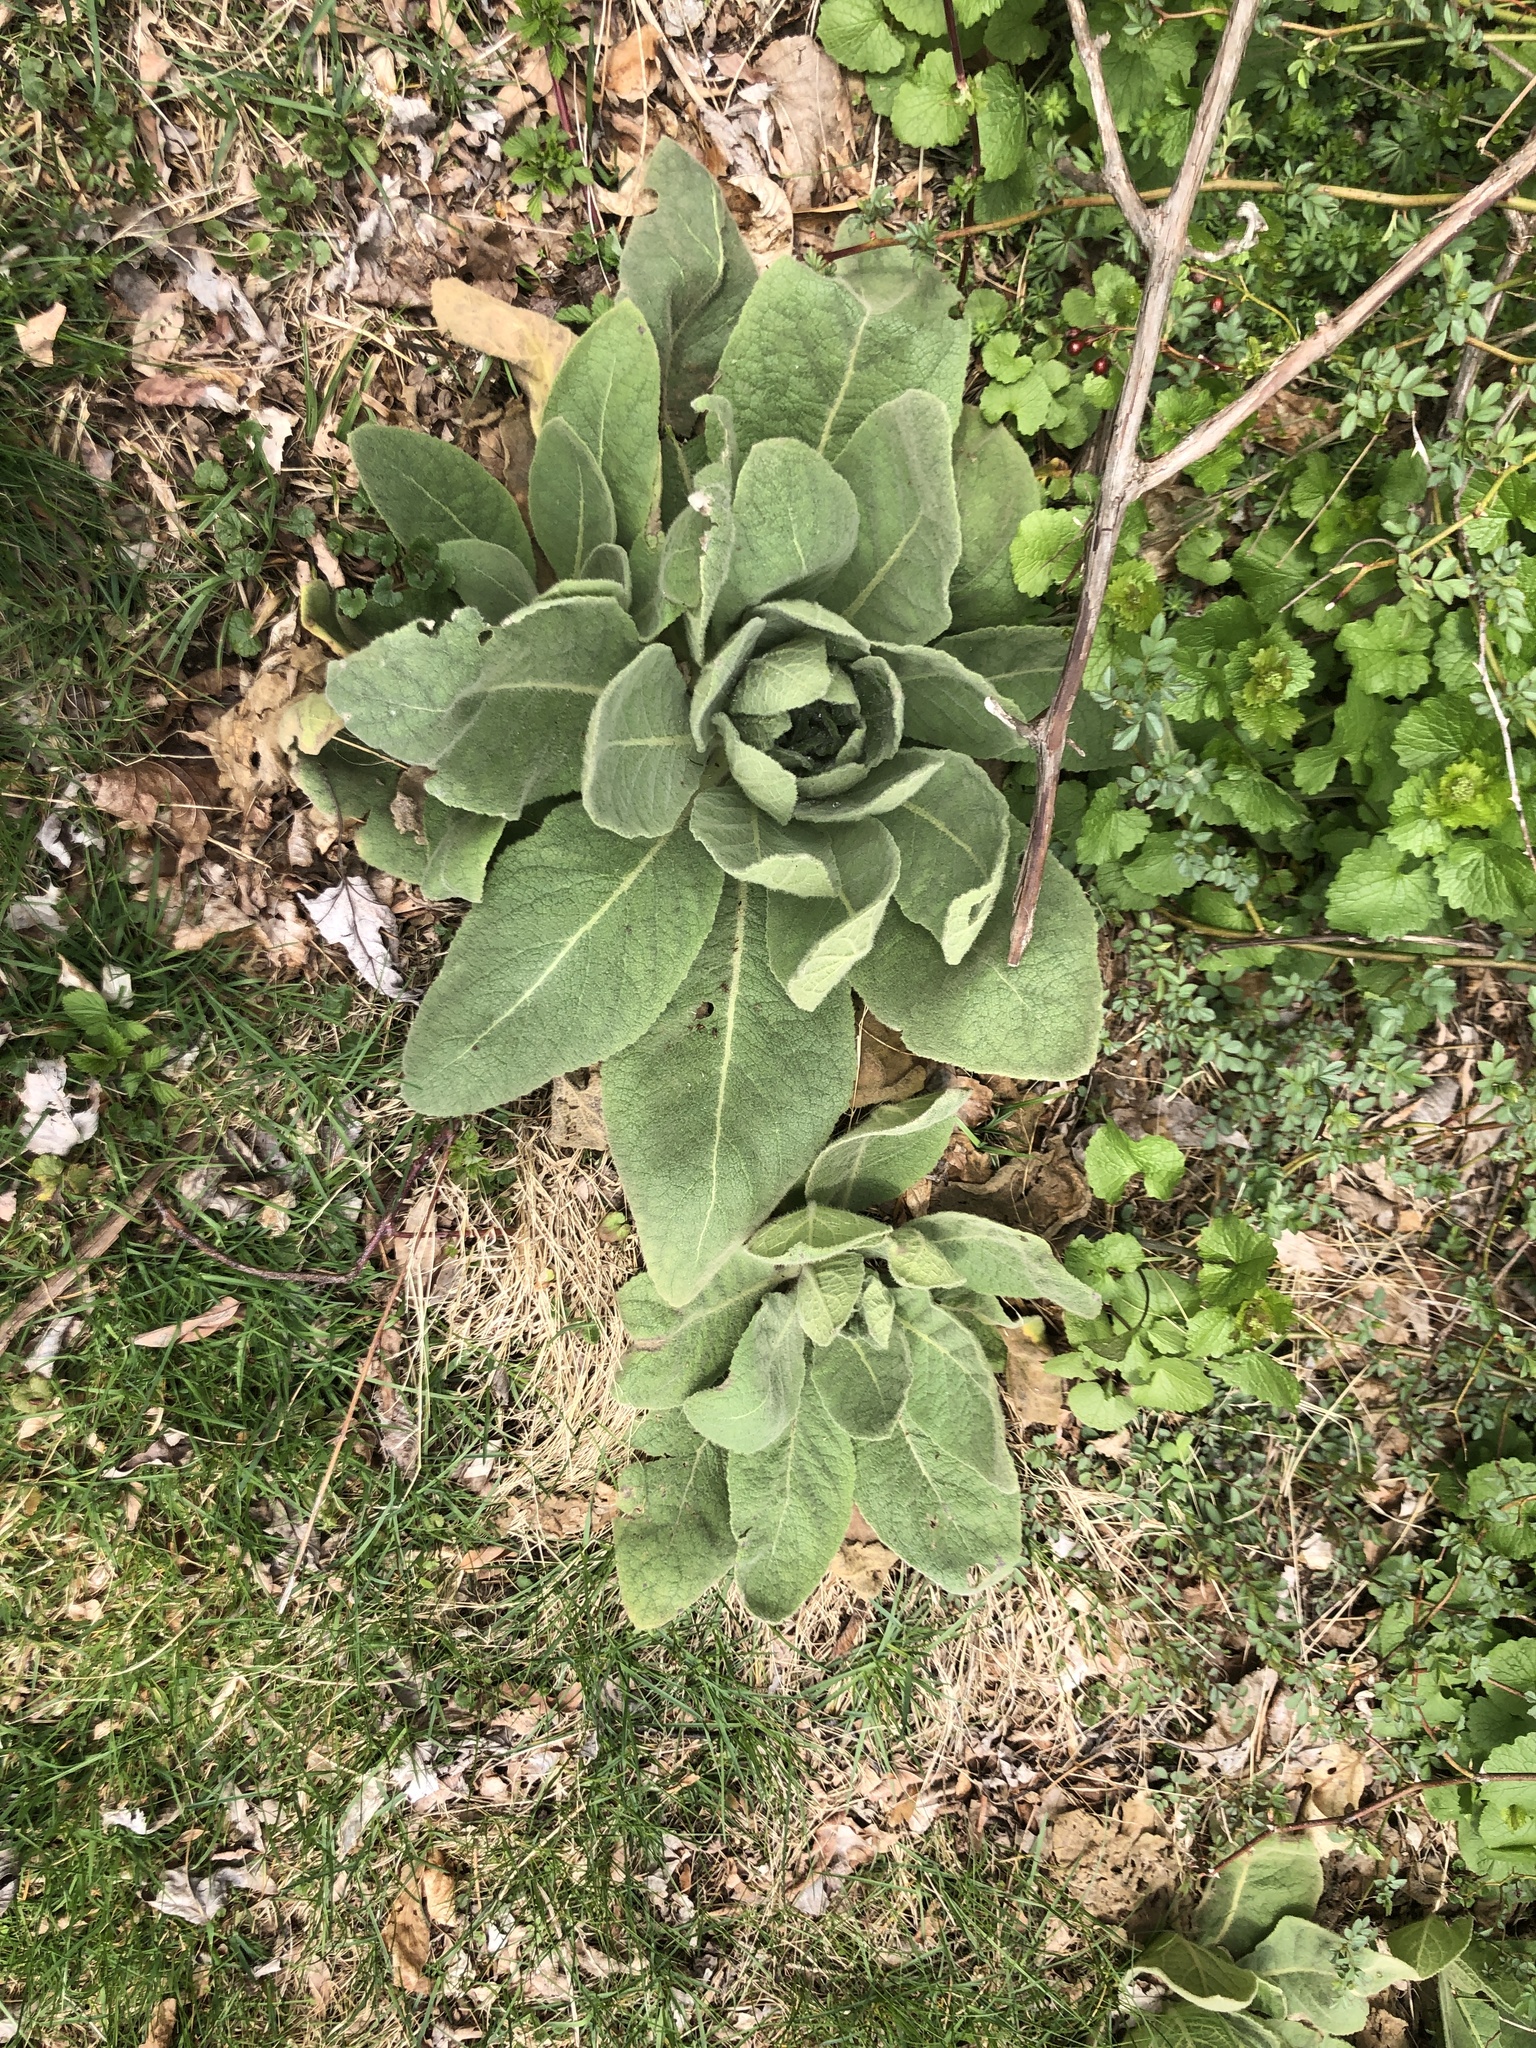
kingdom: Plantae
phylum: Tracheophyta
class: Magnoliopsida
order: Lamiales
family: Scrophulariaceae
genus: Verbascum
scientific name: Verbascum thapsus
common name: Common mullein
